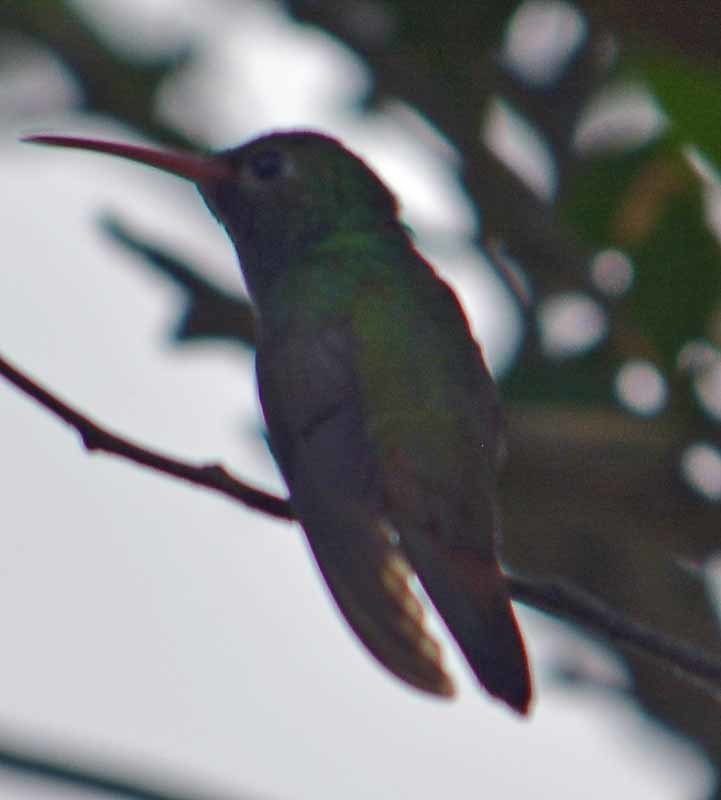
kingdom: Animalia
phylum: Chordata
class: Aves
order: Apodiformes
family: Trochilidae
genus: Amazilia
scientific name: Amazilia yucatanensis
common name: Buff-bellied hummingbird
